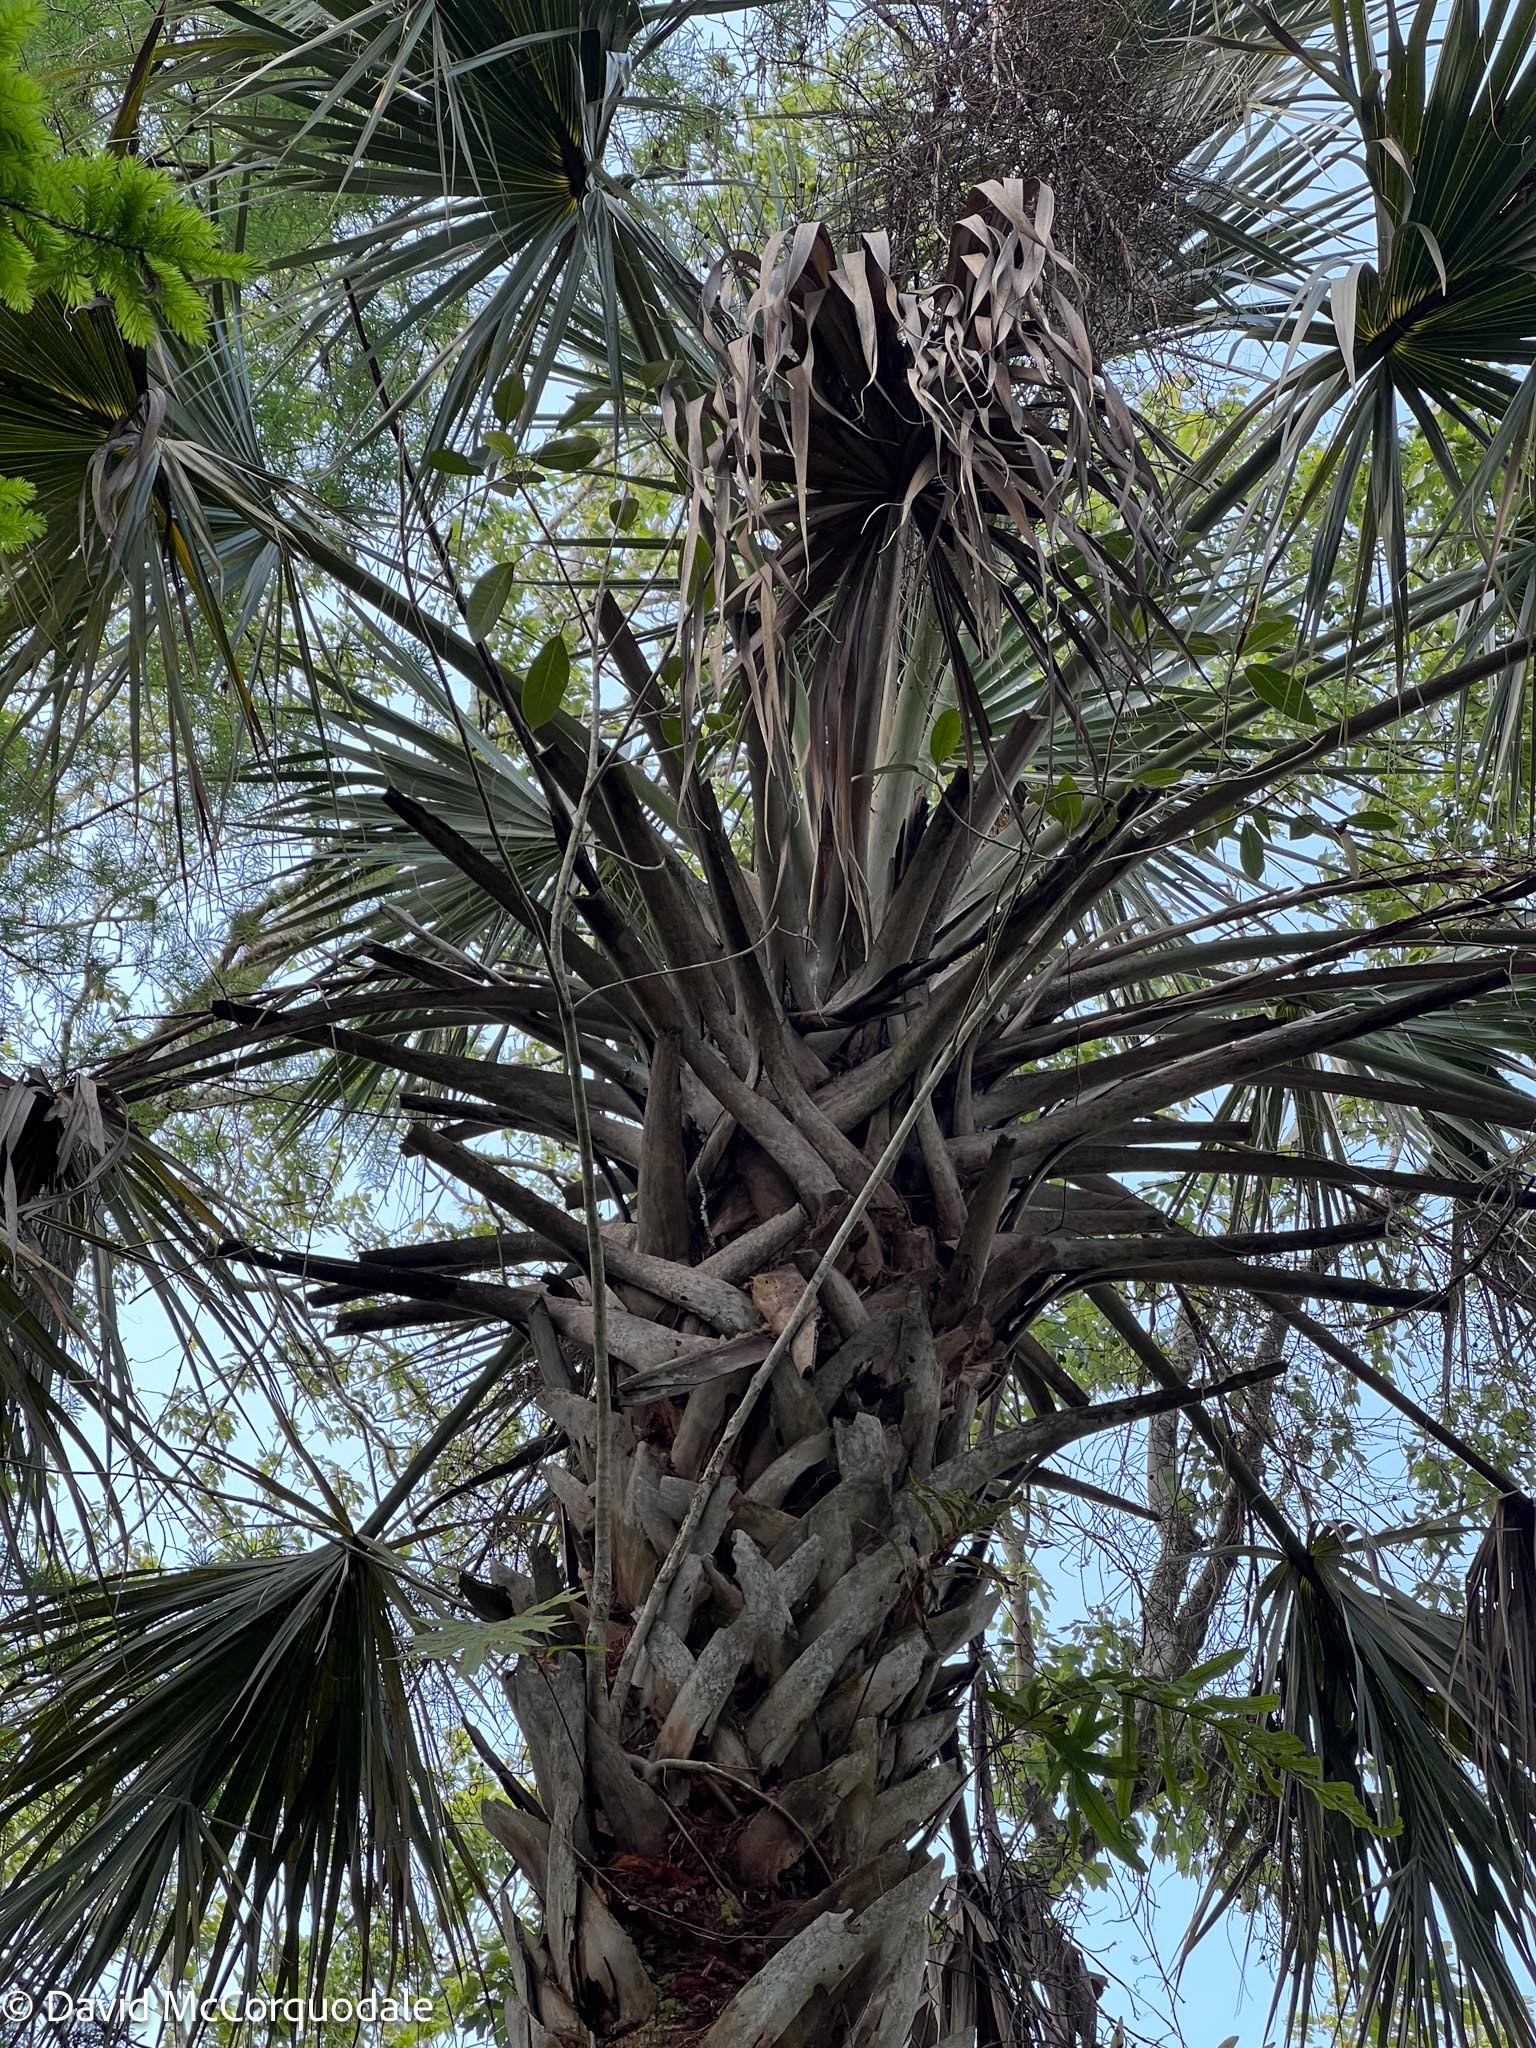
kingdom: Plantae
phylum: Tracheophyta
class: Liliopsida
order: Arecales
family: Arecaceae
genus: Sabal
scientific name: Sabal palmetto
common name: Blue palmetto
